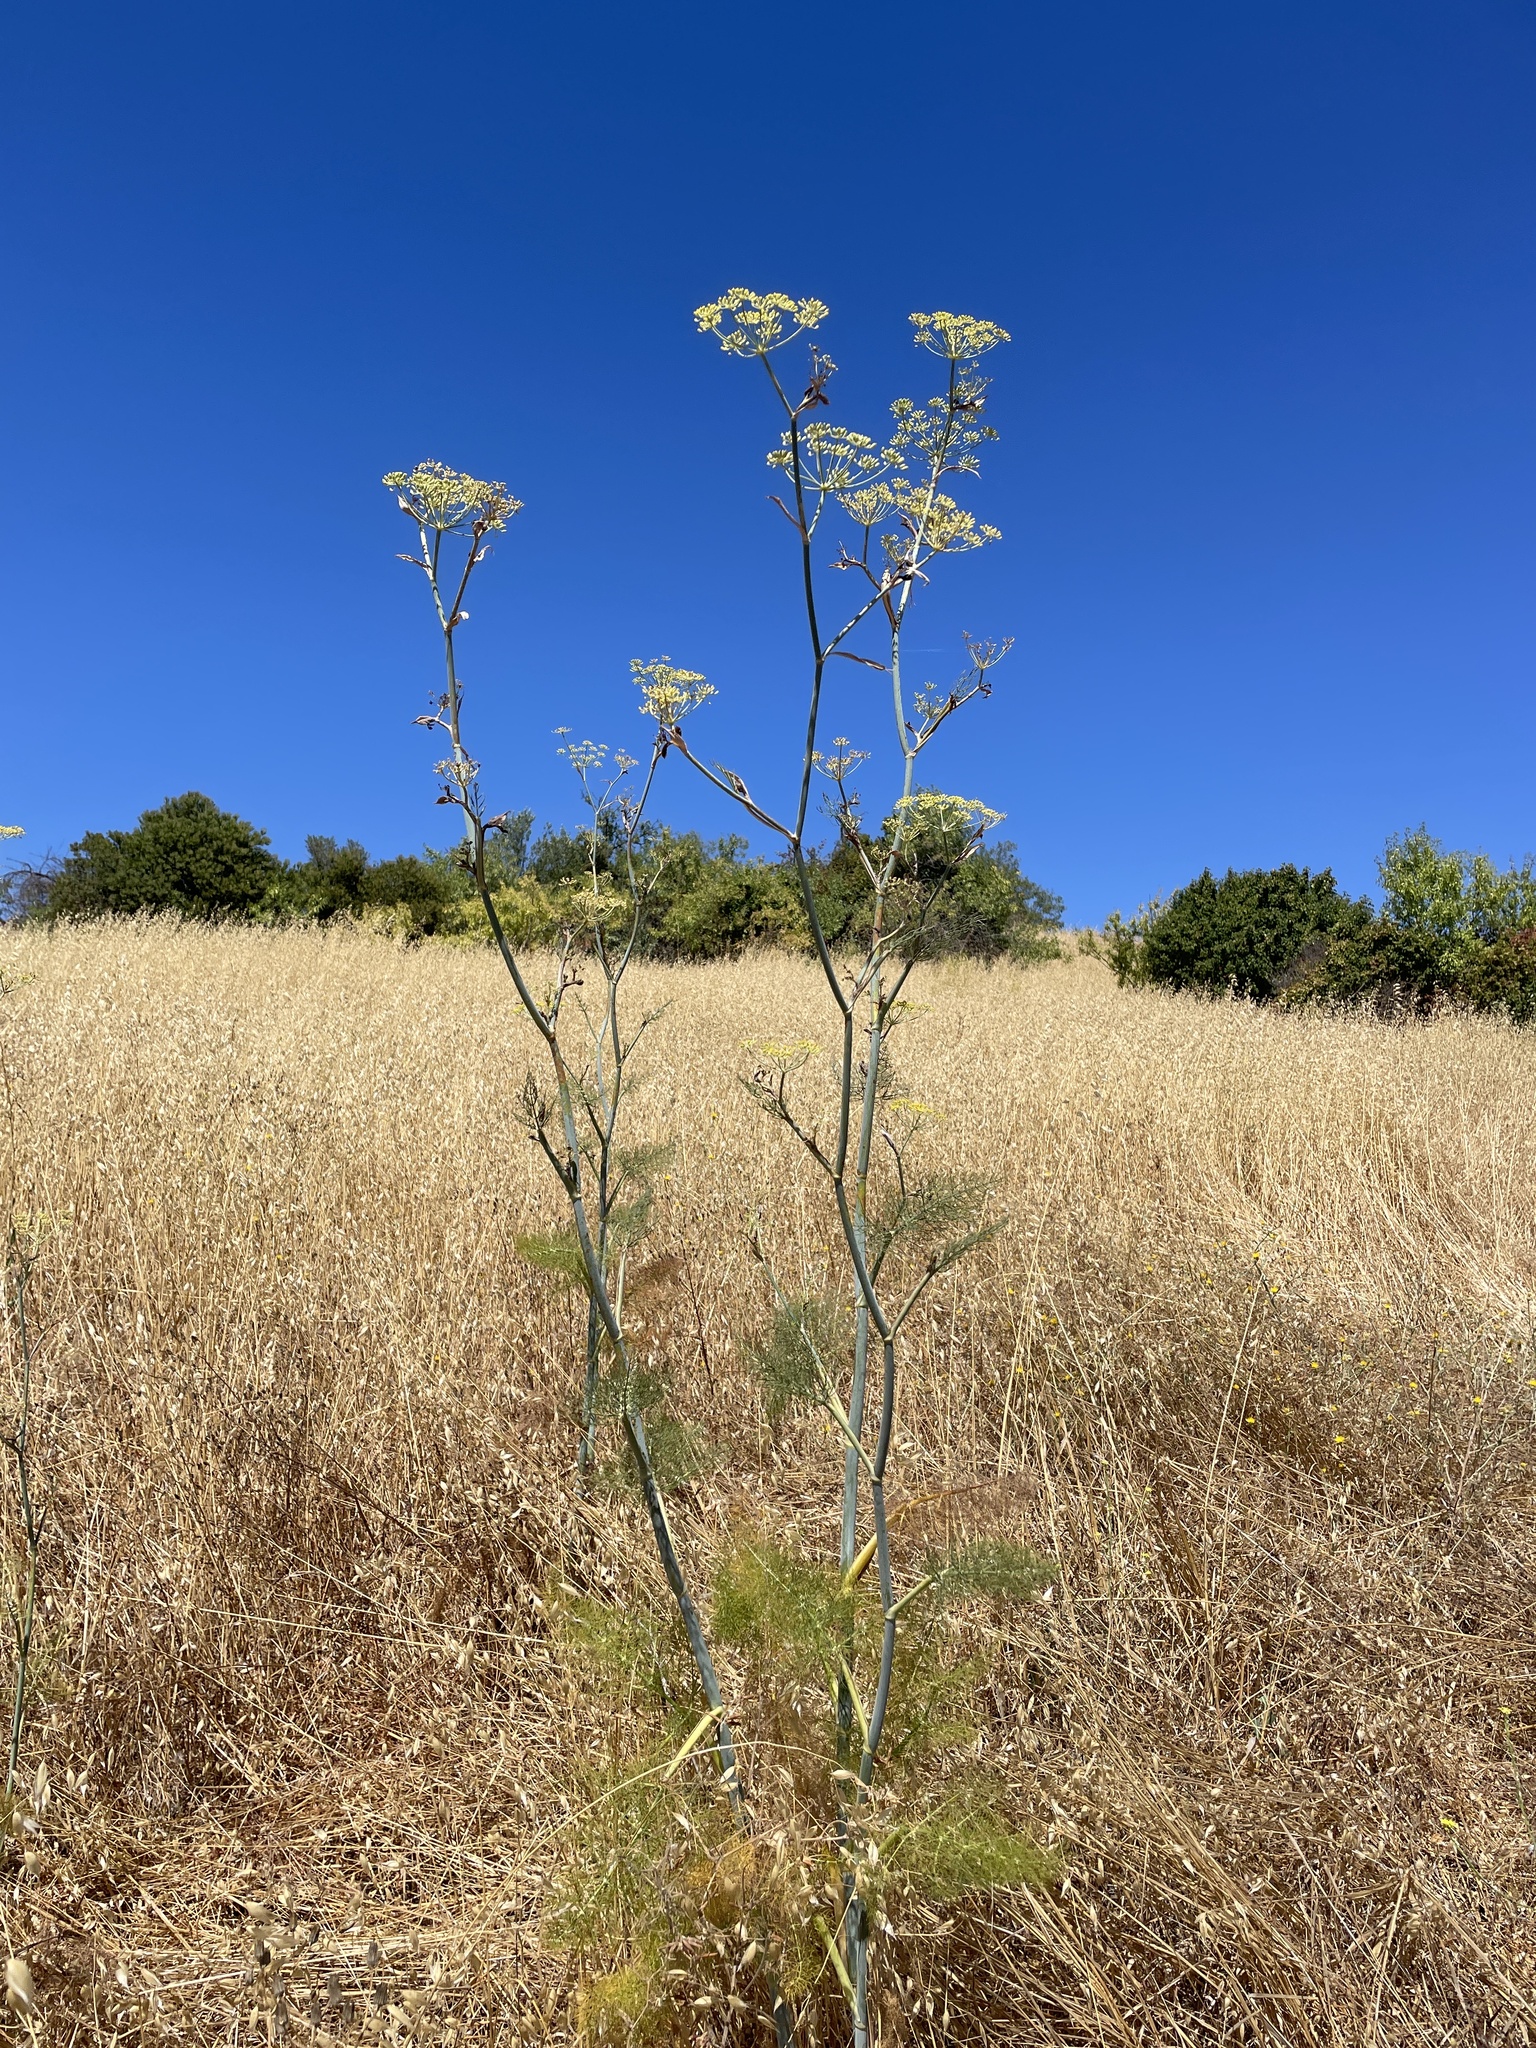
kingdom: Plantae
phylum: Tracheophyta
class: Magnoliopsida
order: Apiales
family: Apiaceae
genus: Foeniculum
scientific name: Foeniculum vulgare
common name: Fennel
